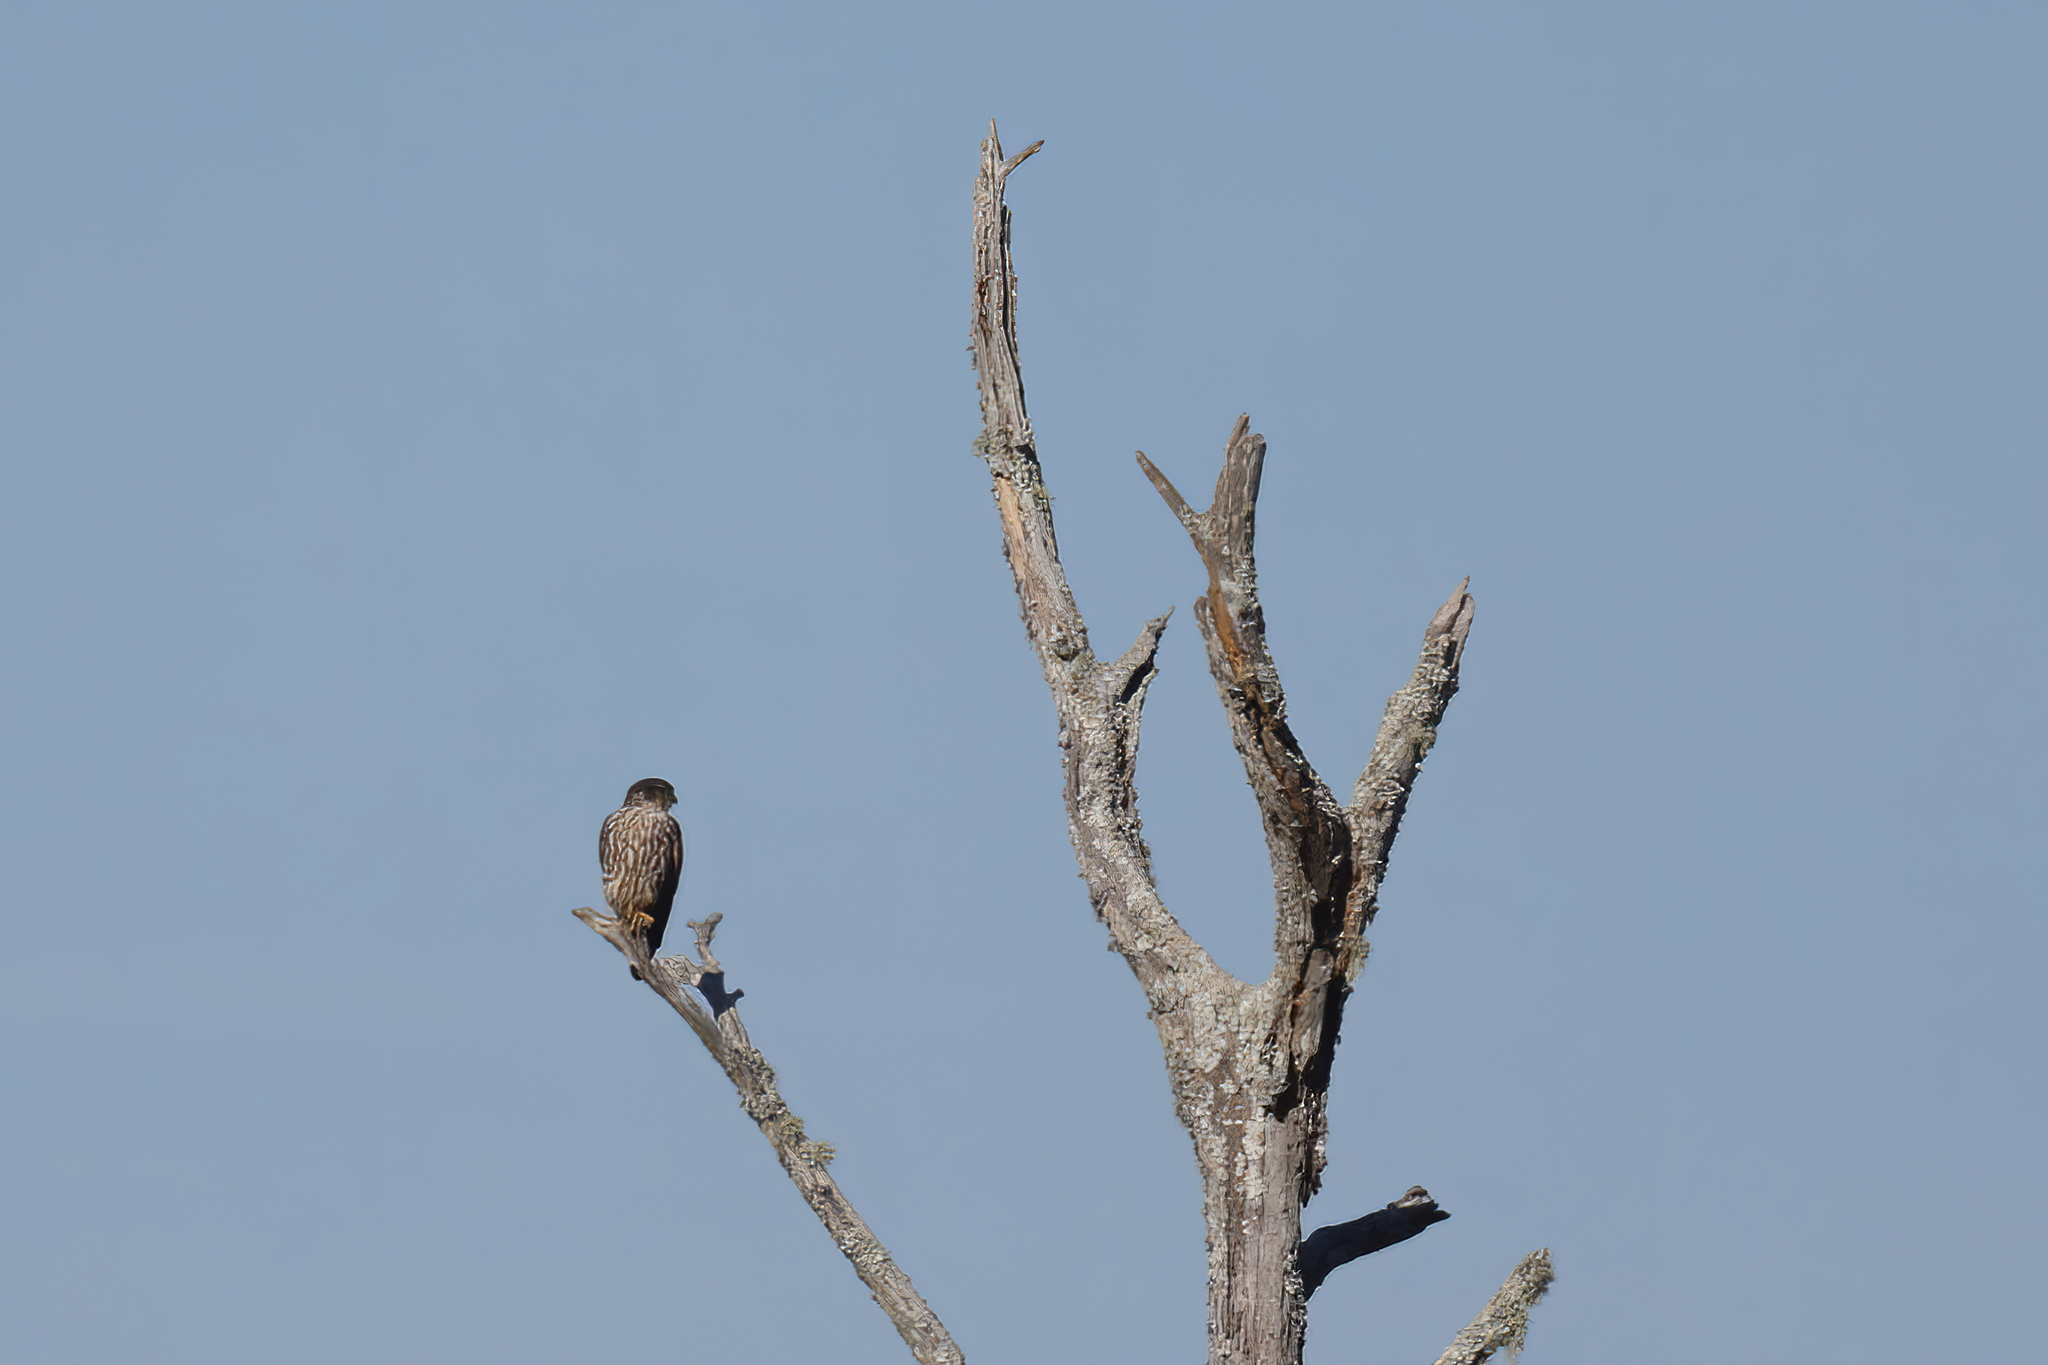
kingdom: Animalia
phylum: Chordata
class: Aves
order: Falconiformes
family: Falconidae
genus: Falco
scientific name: Falco columbarius
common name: Merlin
